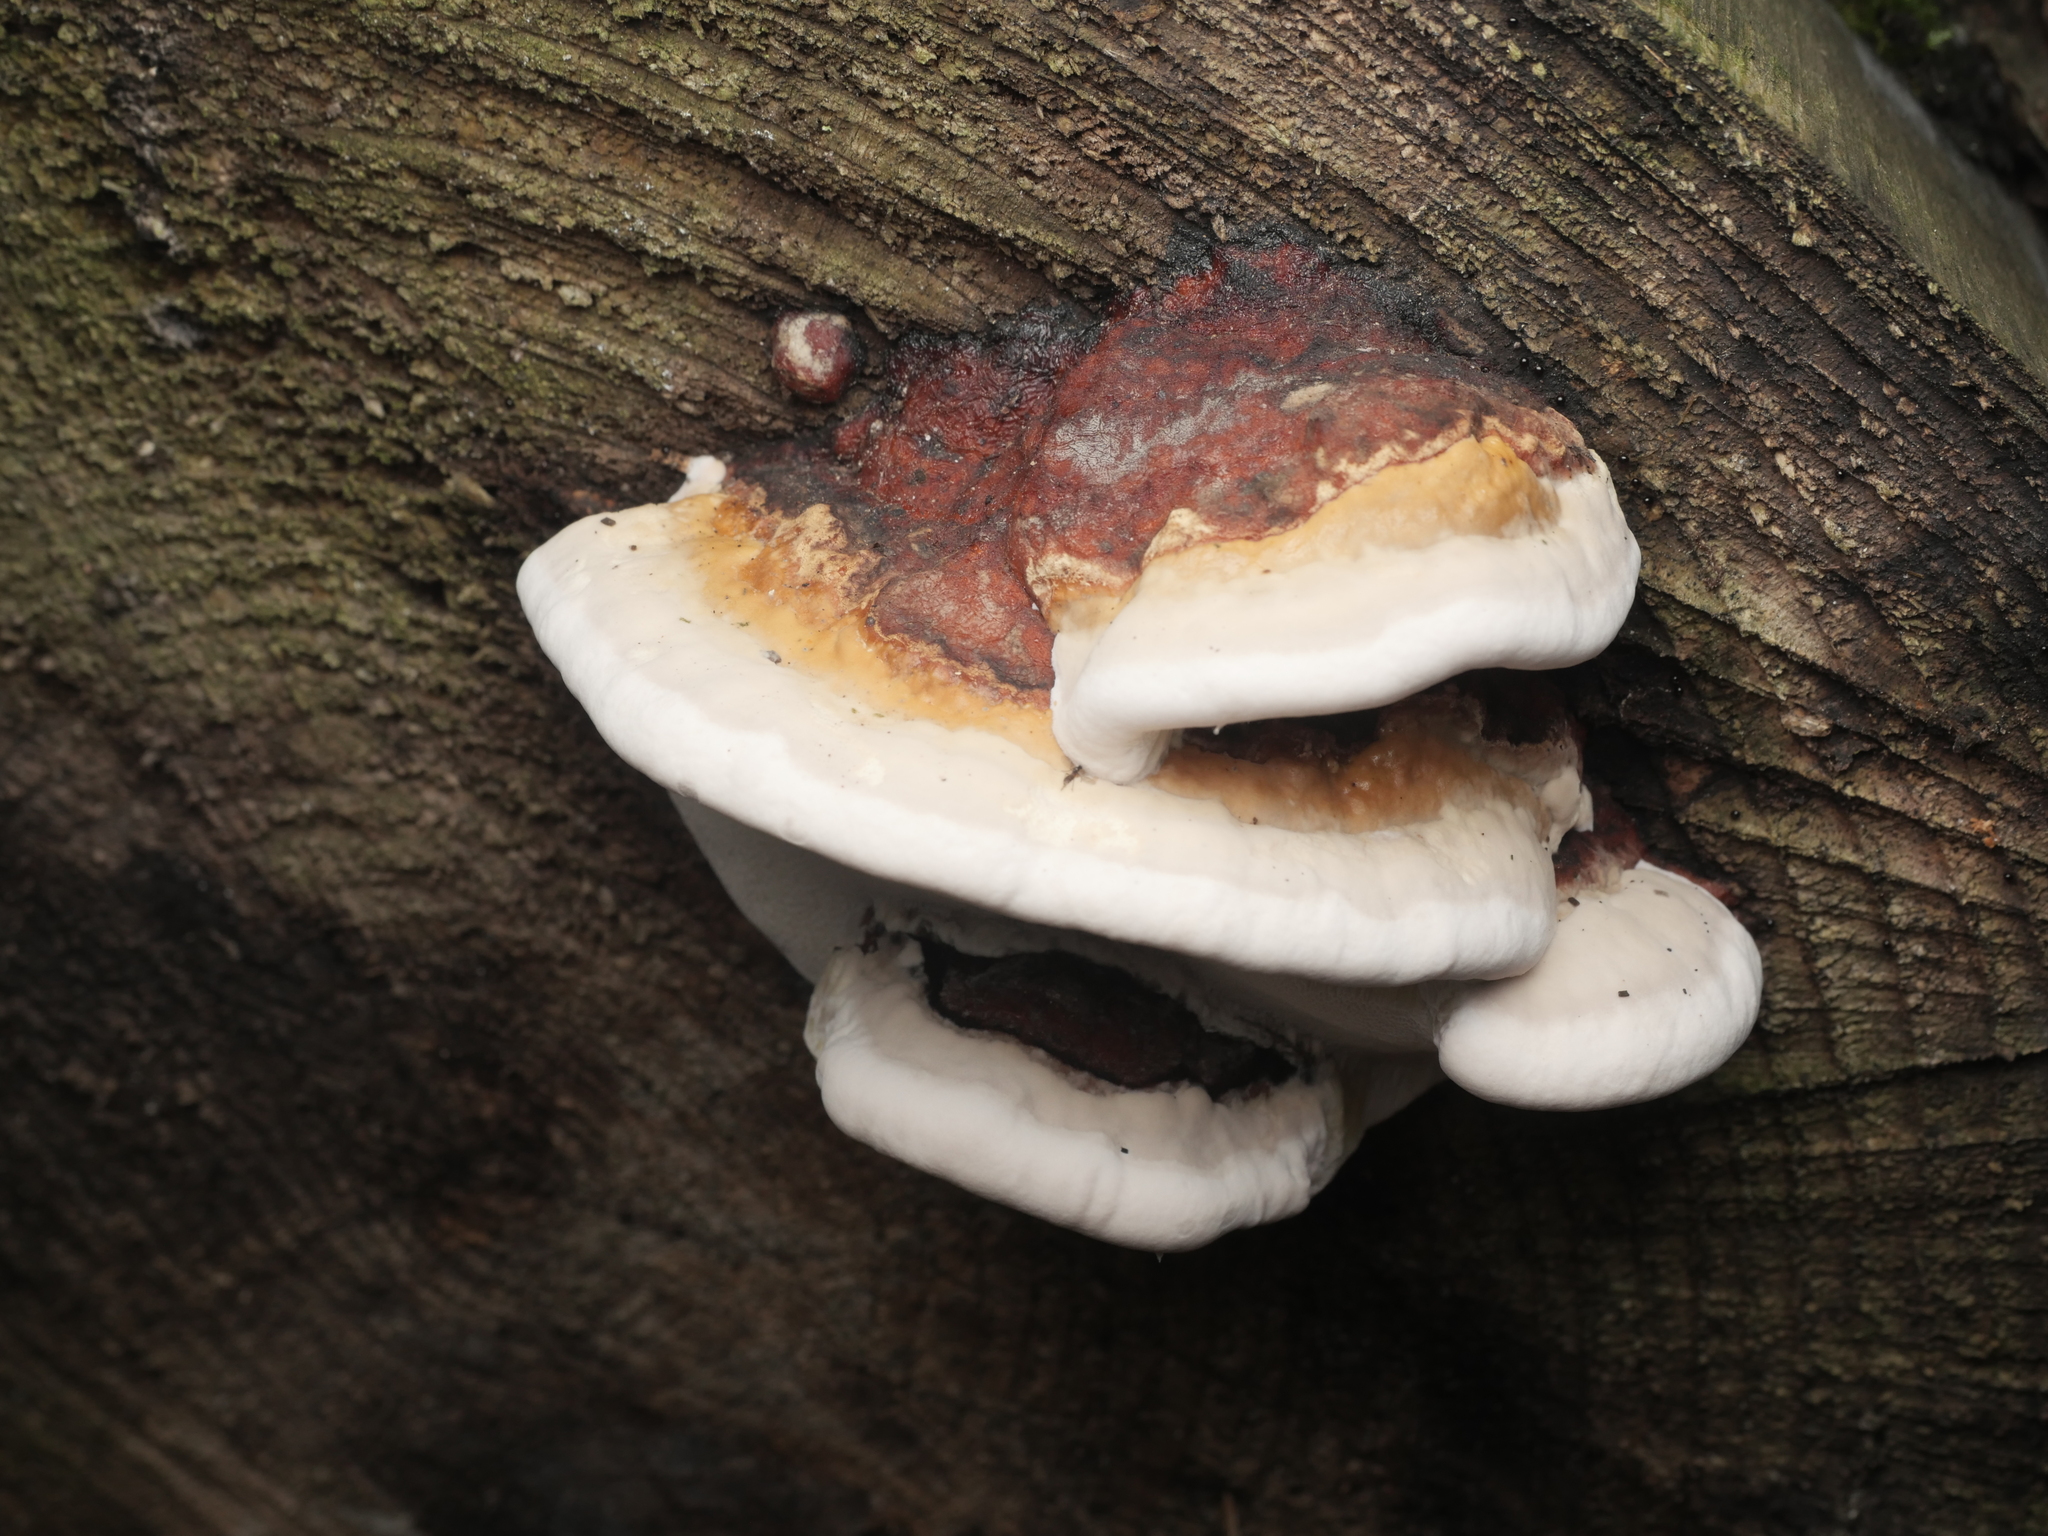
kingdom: Fungi
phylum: Basidiomycota
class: Agaricomycetes
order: Polyporales
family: Fomitopsidaceae
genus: Fomitopsis
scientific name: Fomitopsis pinicola
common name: Red-belted bracket
